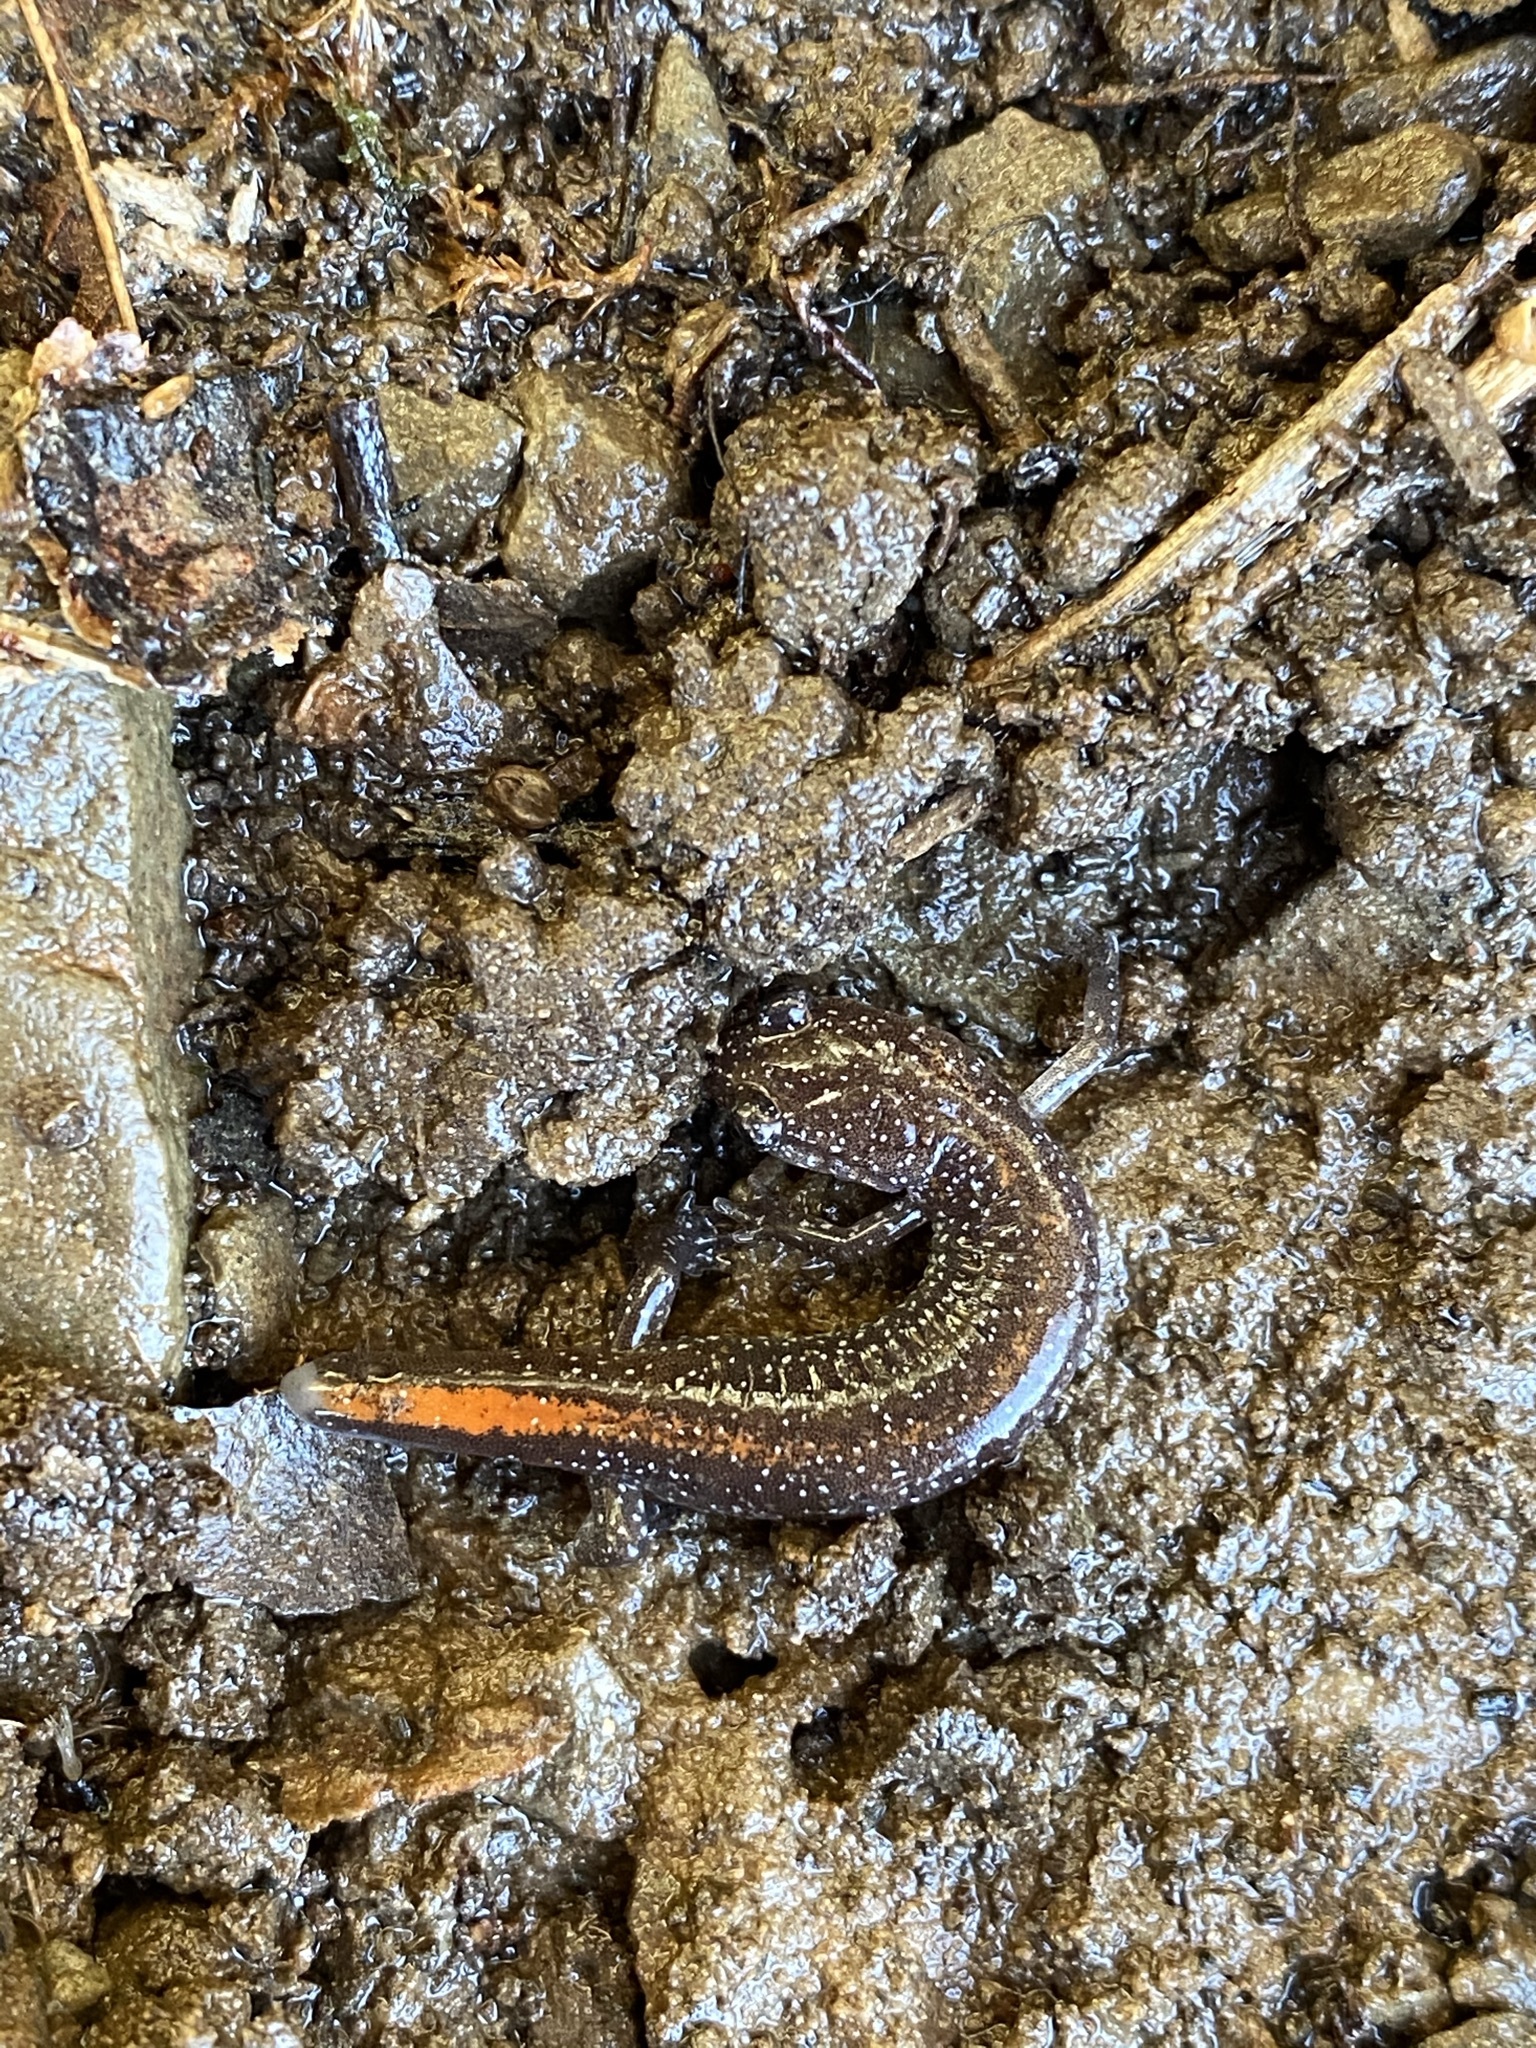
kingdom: Animalia
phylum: Chordata
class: Amphibia
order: Caudata
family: Plethodontidae
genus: Plethodon
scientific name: Plethodon angusticlavius
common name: Ozark zigzag salamander
